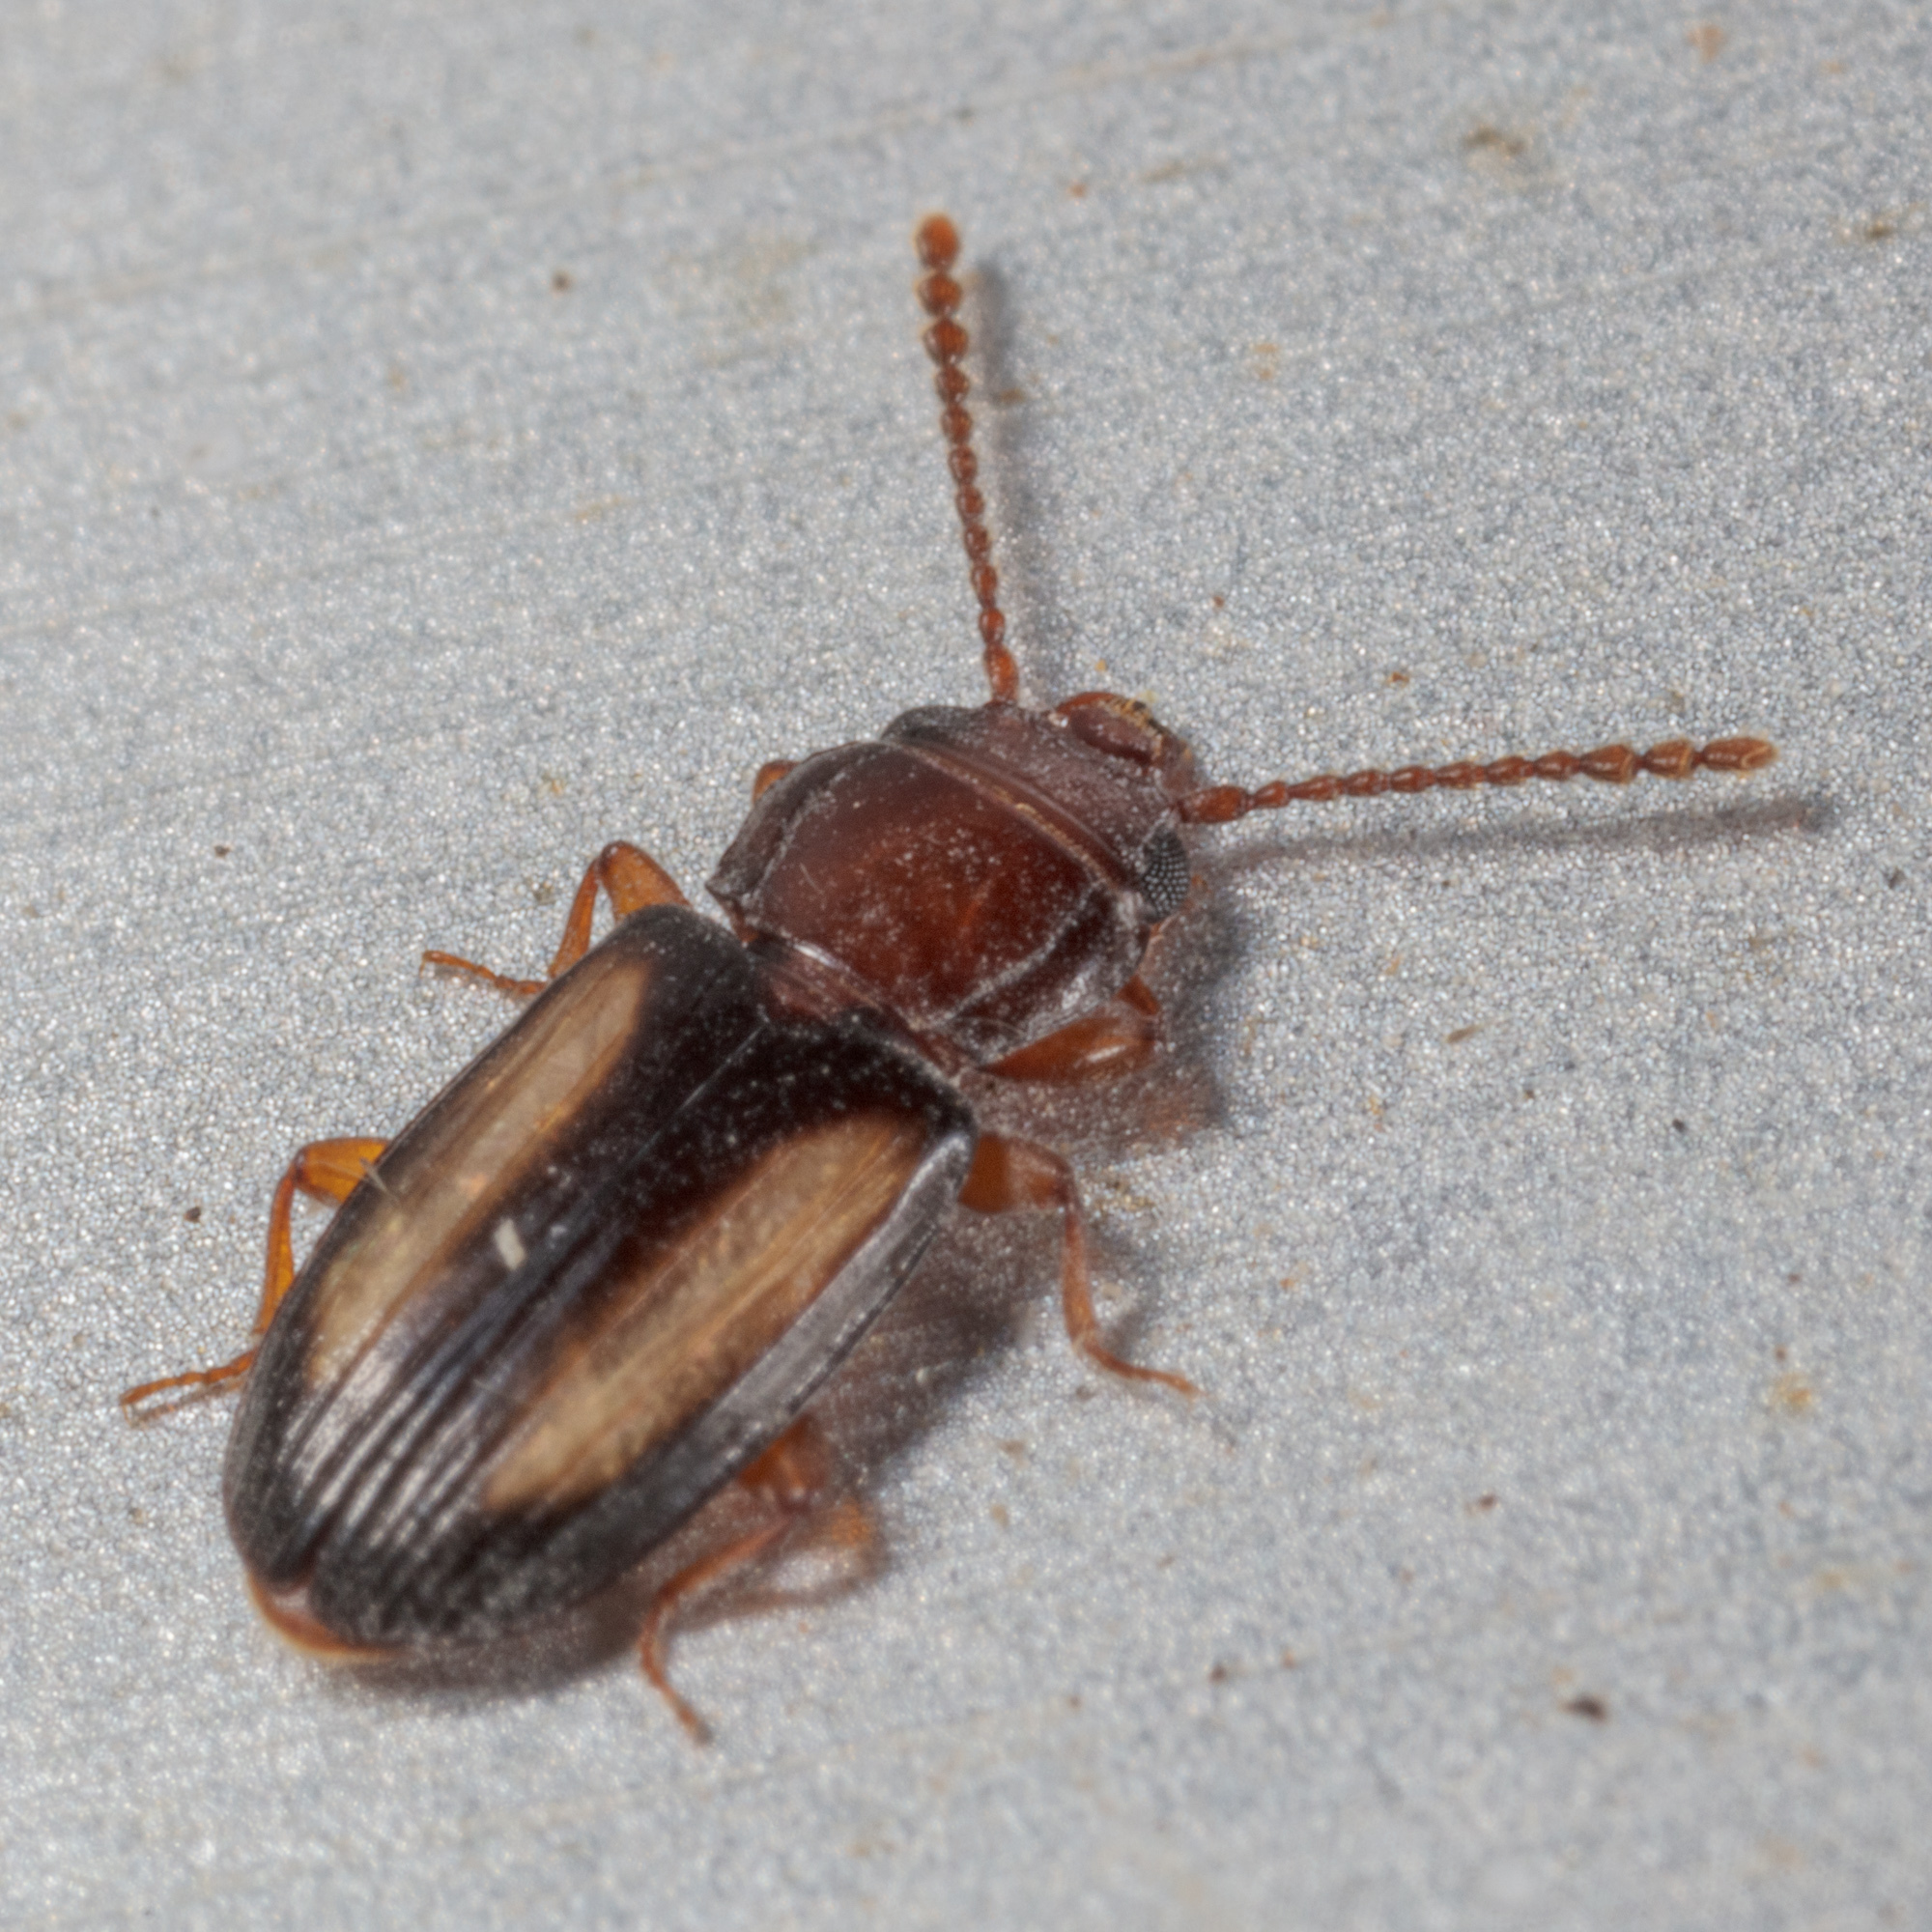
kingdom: Animalia
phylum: Arthropoda
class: Insecta
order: Coleoptera
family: Laemophloeidae
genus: Laemophloeus
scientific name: Laemophloeus terminalis
